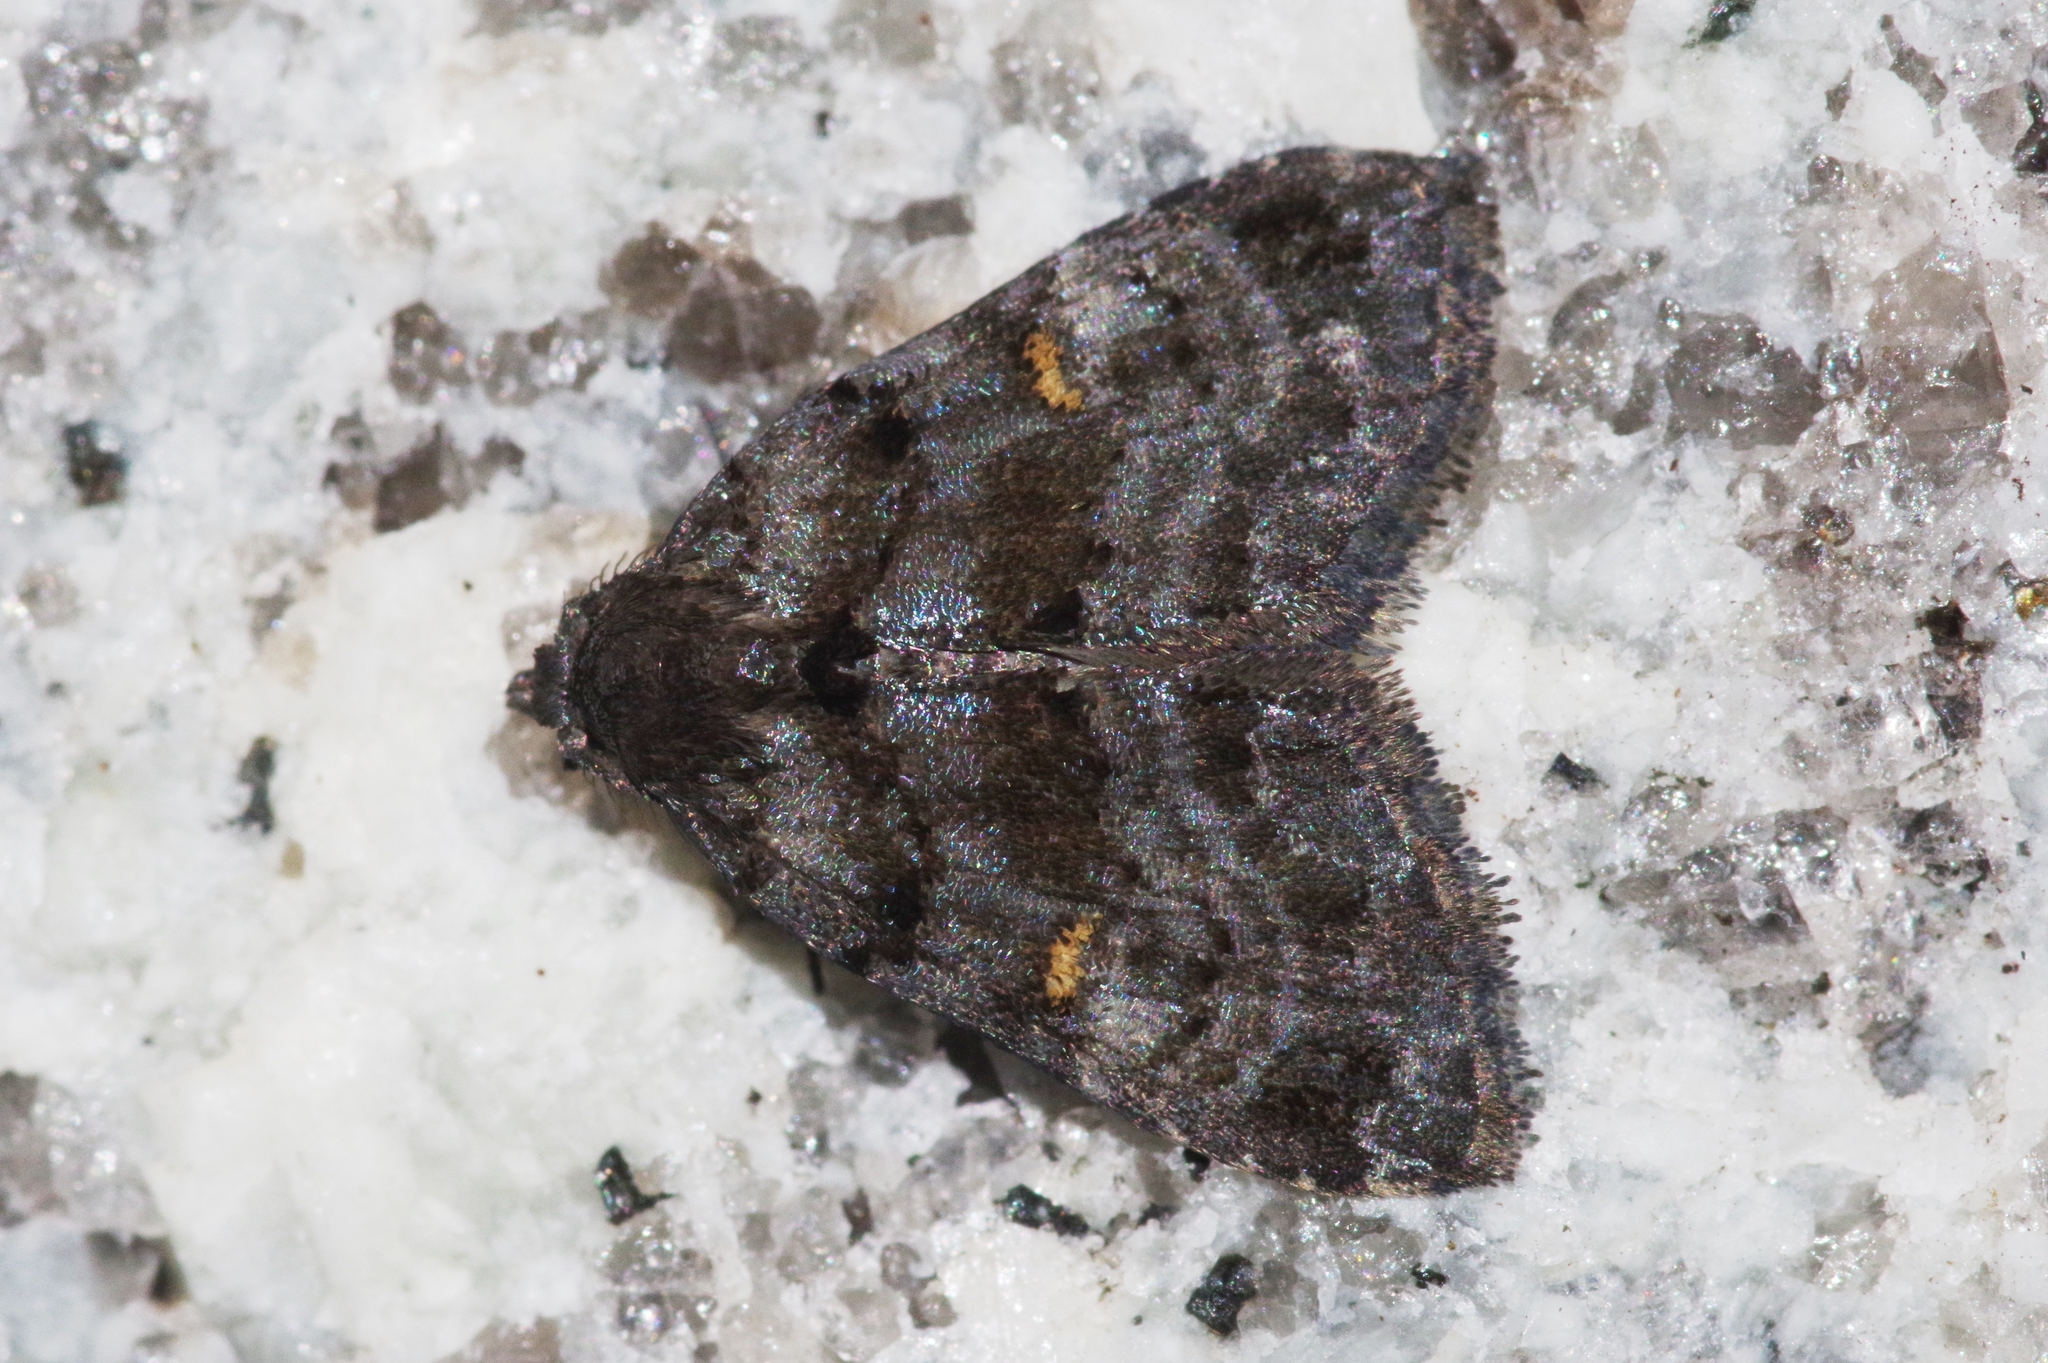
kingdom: Animalia
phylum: Arthropoda
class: Insecta
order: Lepidoptera
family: Erebidae
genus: Chibidokuga
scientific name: Chibidokuga hypenodes
